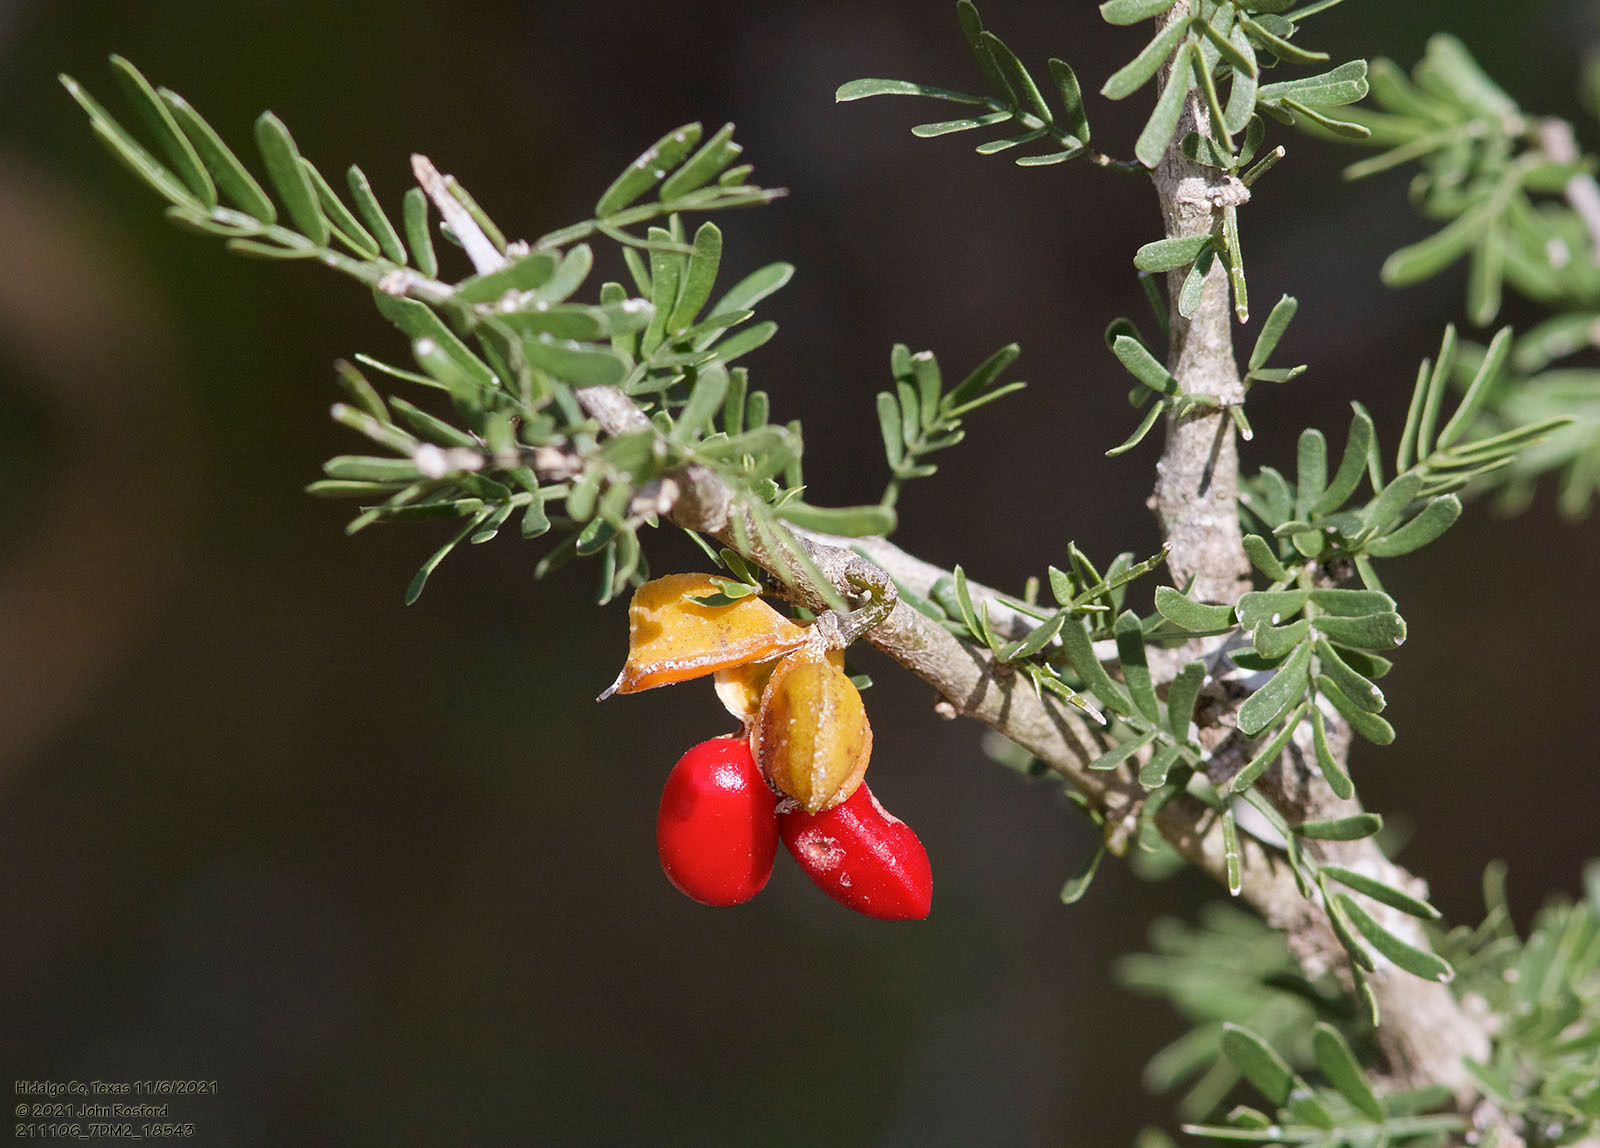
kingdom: Plantae
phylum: Tracheophyta
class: Magnoliopsida
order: Zygophyllales
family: Zygophyllaceae
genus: Porlieria
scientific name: Porlieria angustifolia
